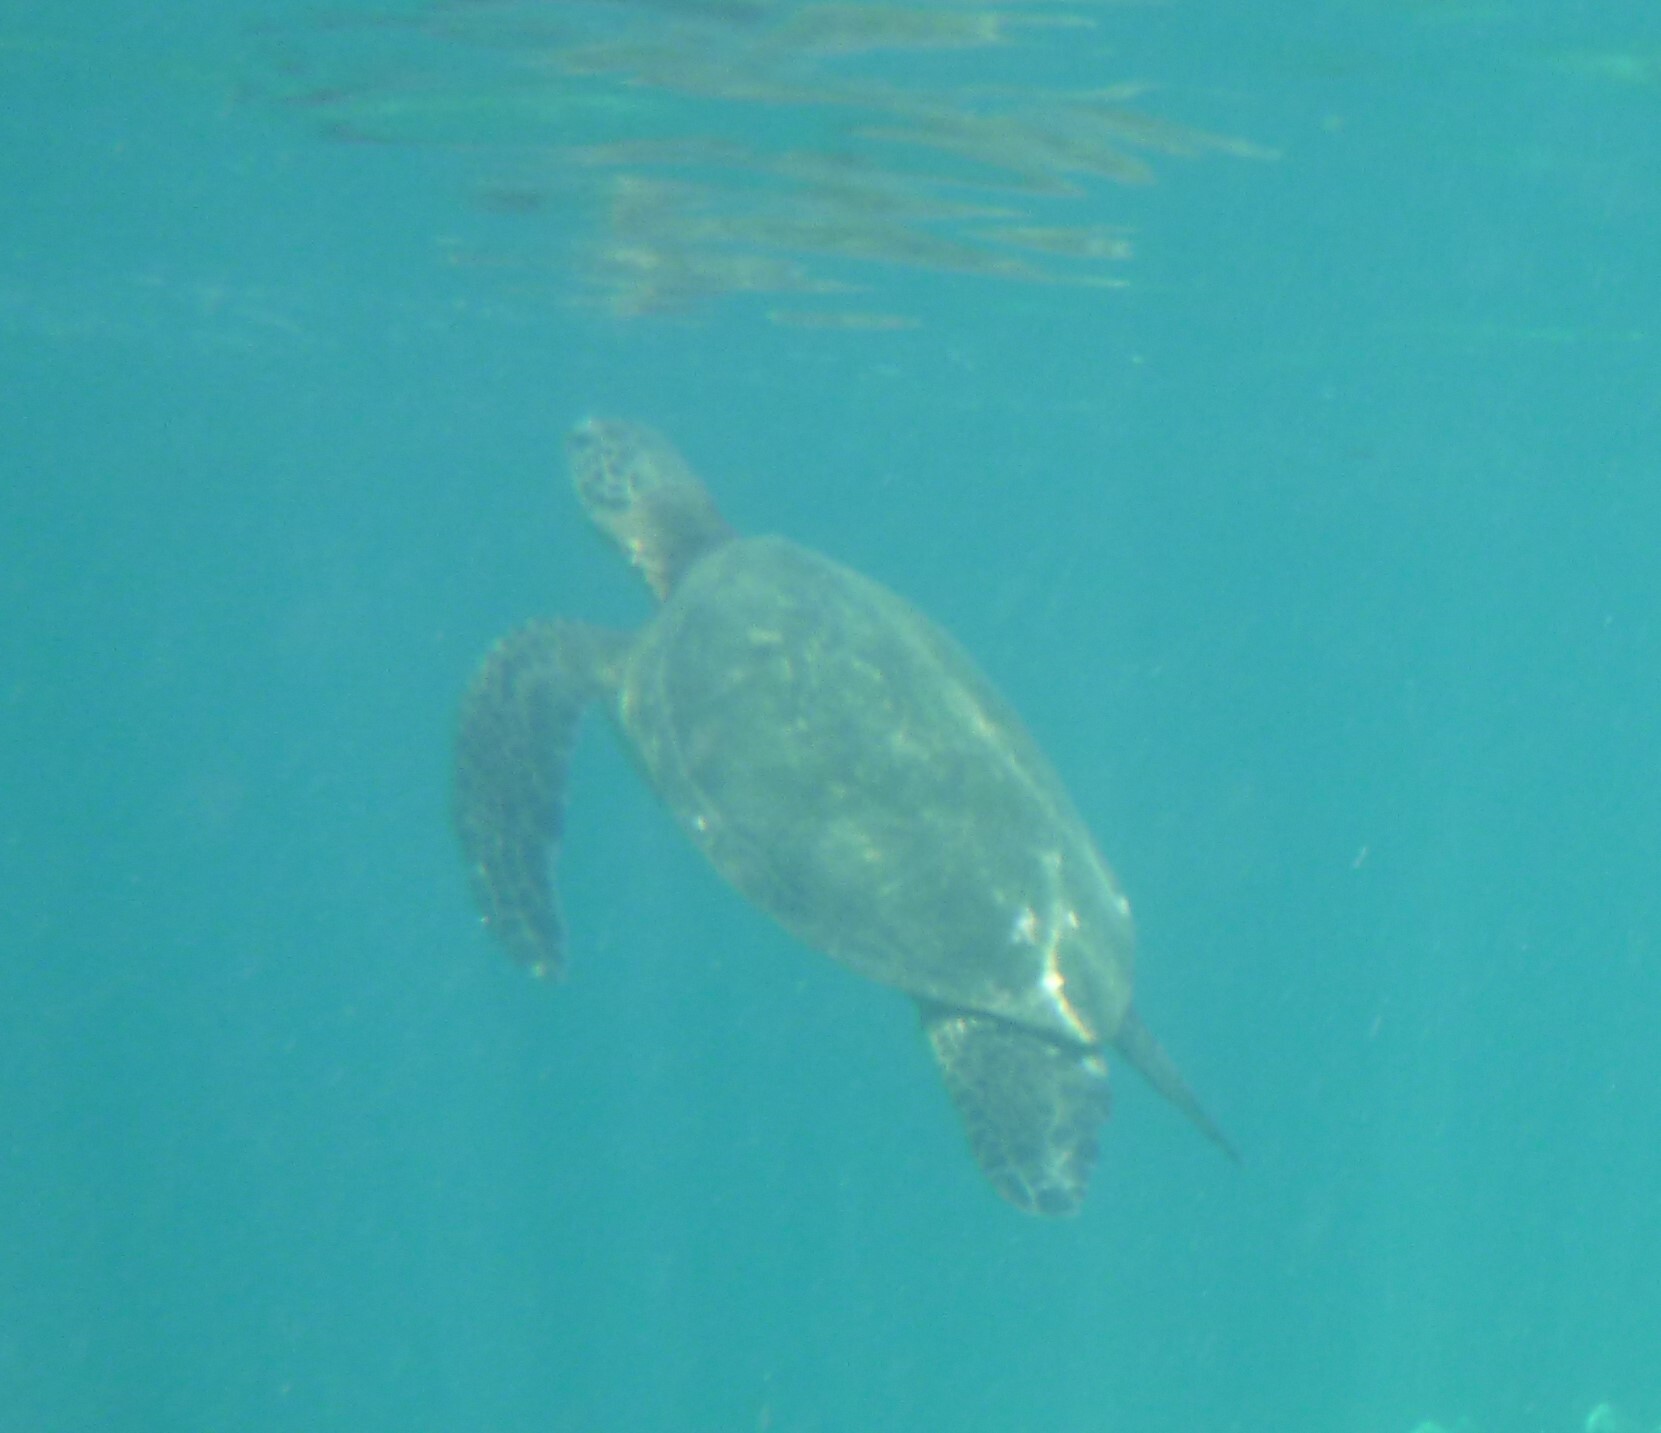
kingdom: Animalia
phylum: Chordata
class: Testudines
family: Cheloniidae
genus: Chelonia
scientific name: Chelonia mydas
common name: Green turtle
